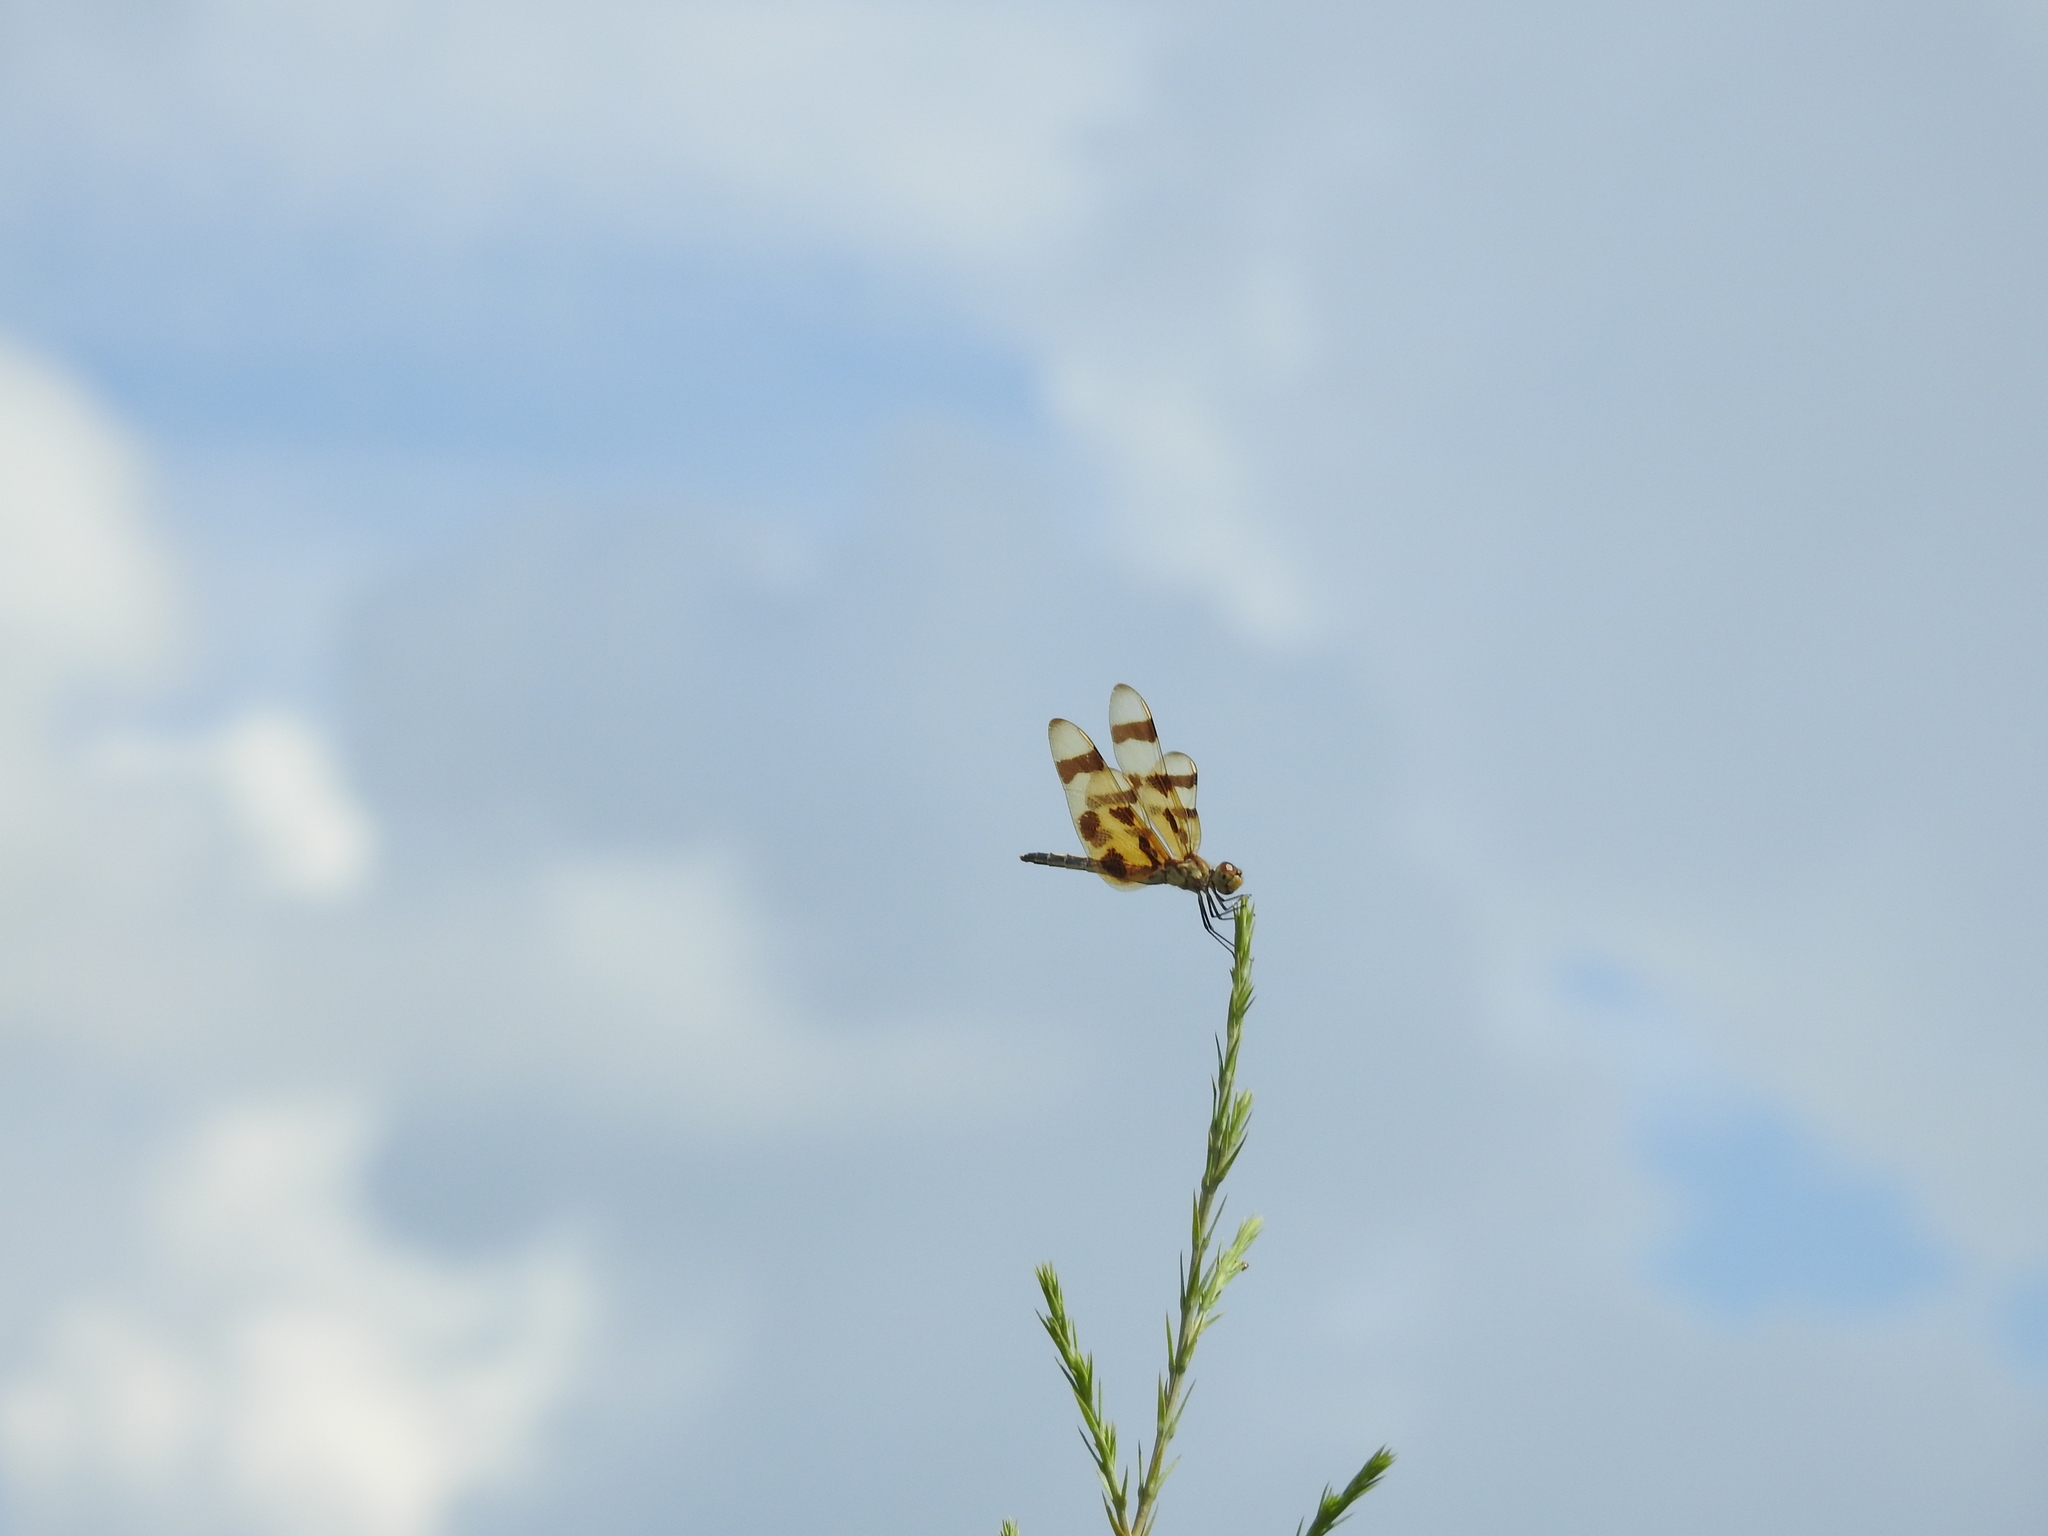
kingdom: Animalia
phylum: Arthropoda
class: Insecta
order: Odonata
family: Libellulidae
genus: Celithemis
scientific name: Celithemis eponina
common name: Halloween pennant
